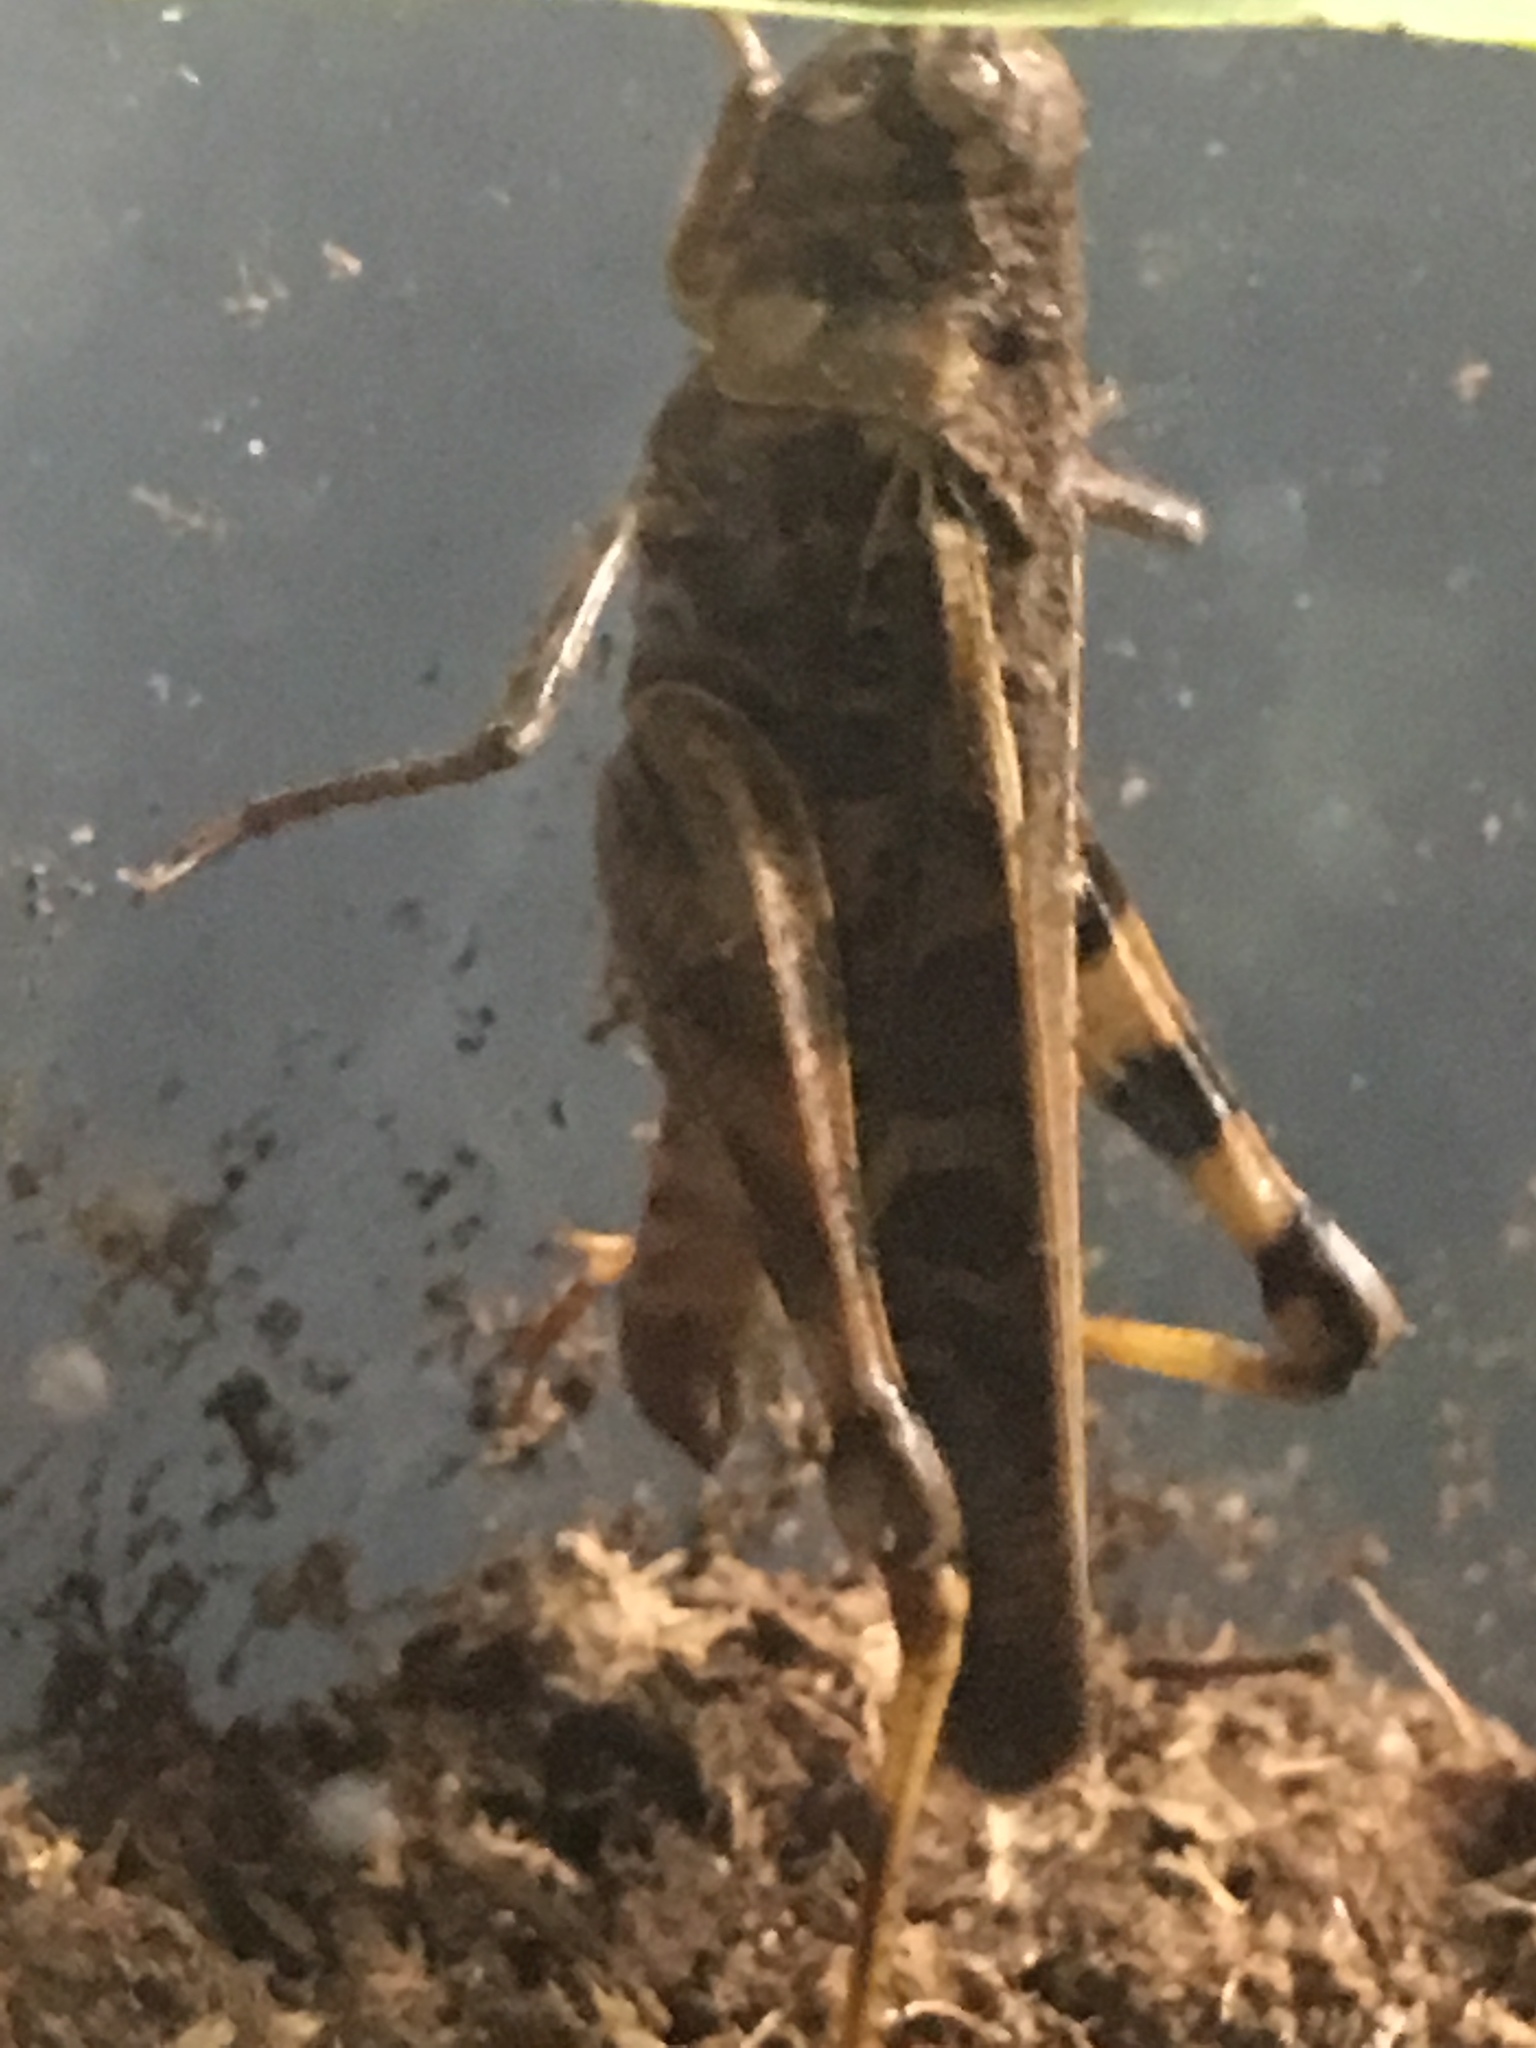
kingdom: Animalia
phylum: Arthropoda
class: Insecta
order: Orthoptera
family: Acrididae
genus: Hippiscus
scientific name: Hippiscus ocelote
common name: Wrinkled grasshopper
